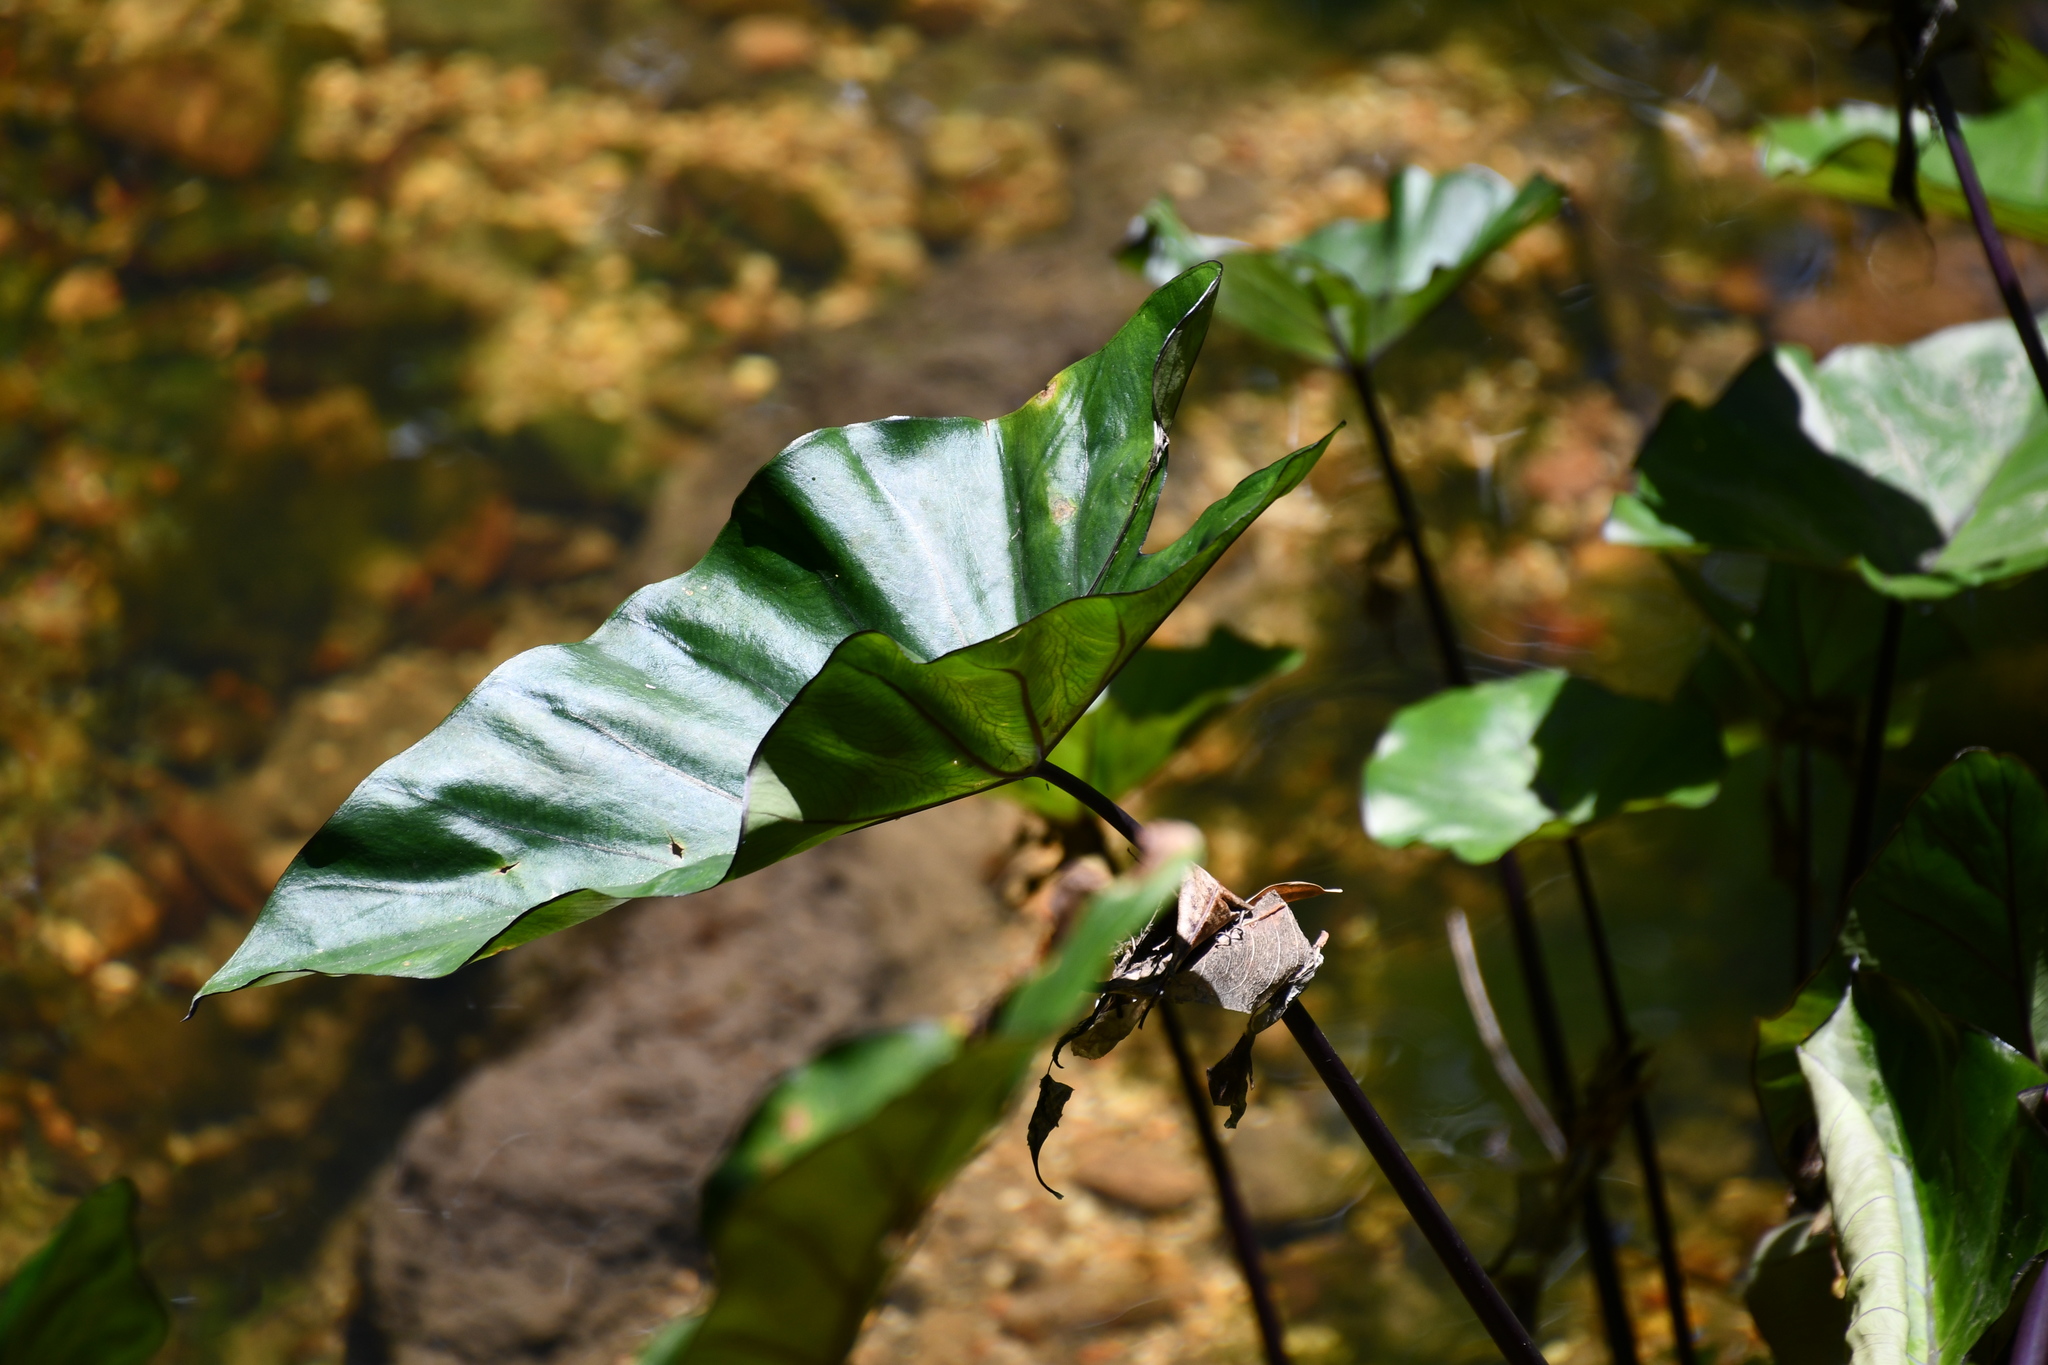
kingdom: Plantae
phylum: Tracheophyta
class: Liliopsida
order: Alismatales
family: Araceae
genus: Colocasia
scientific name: Colocasia esculenta
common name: Taro
